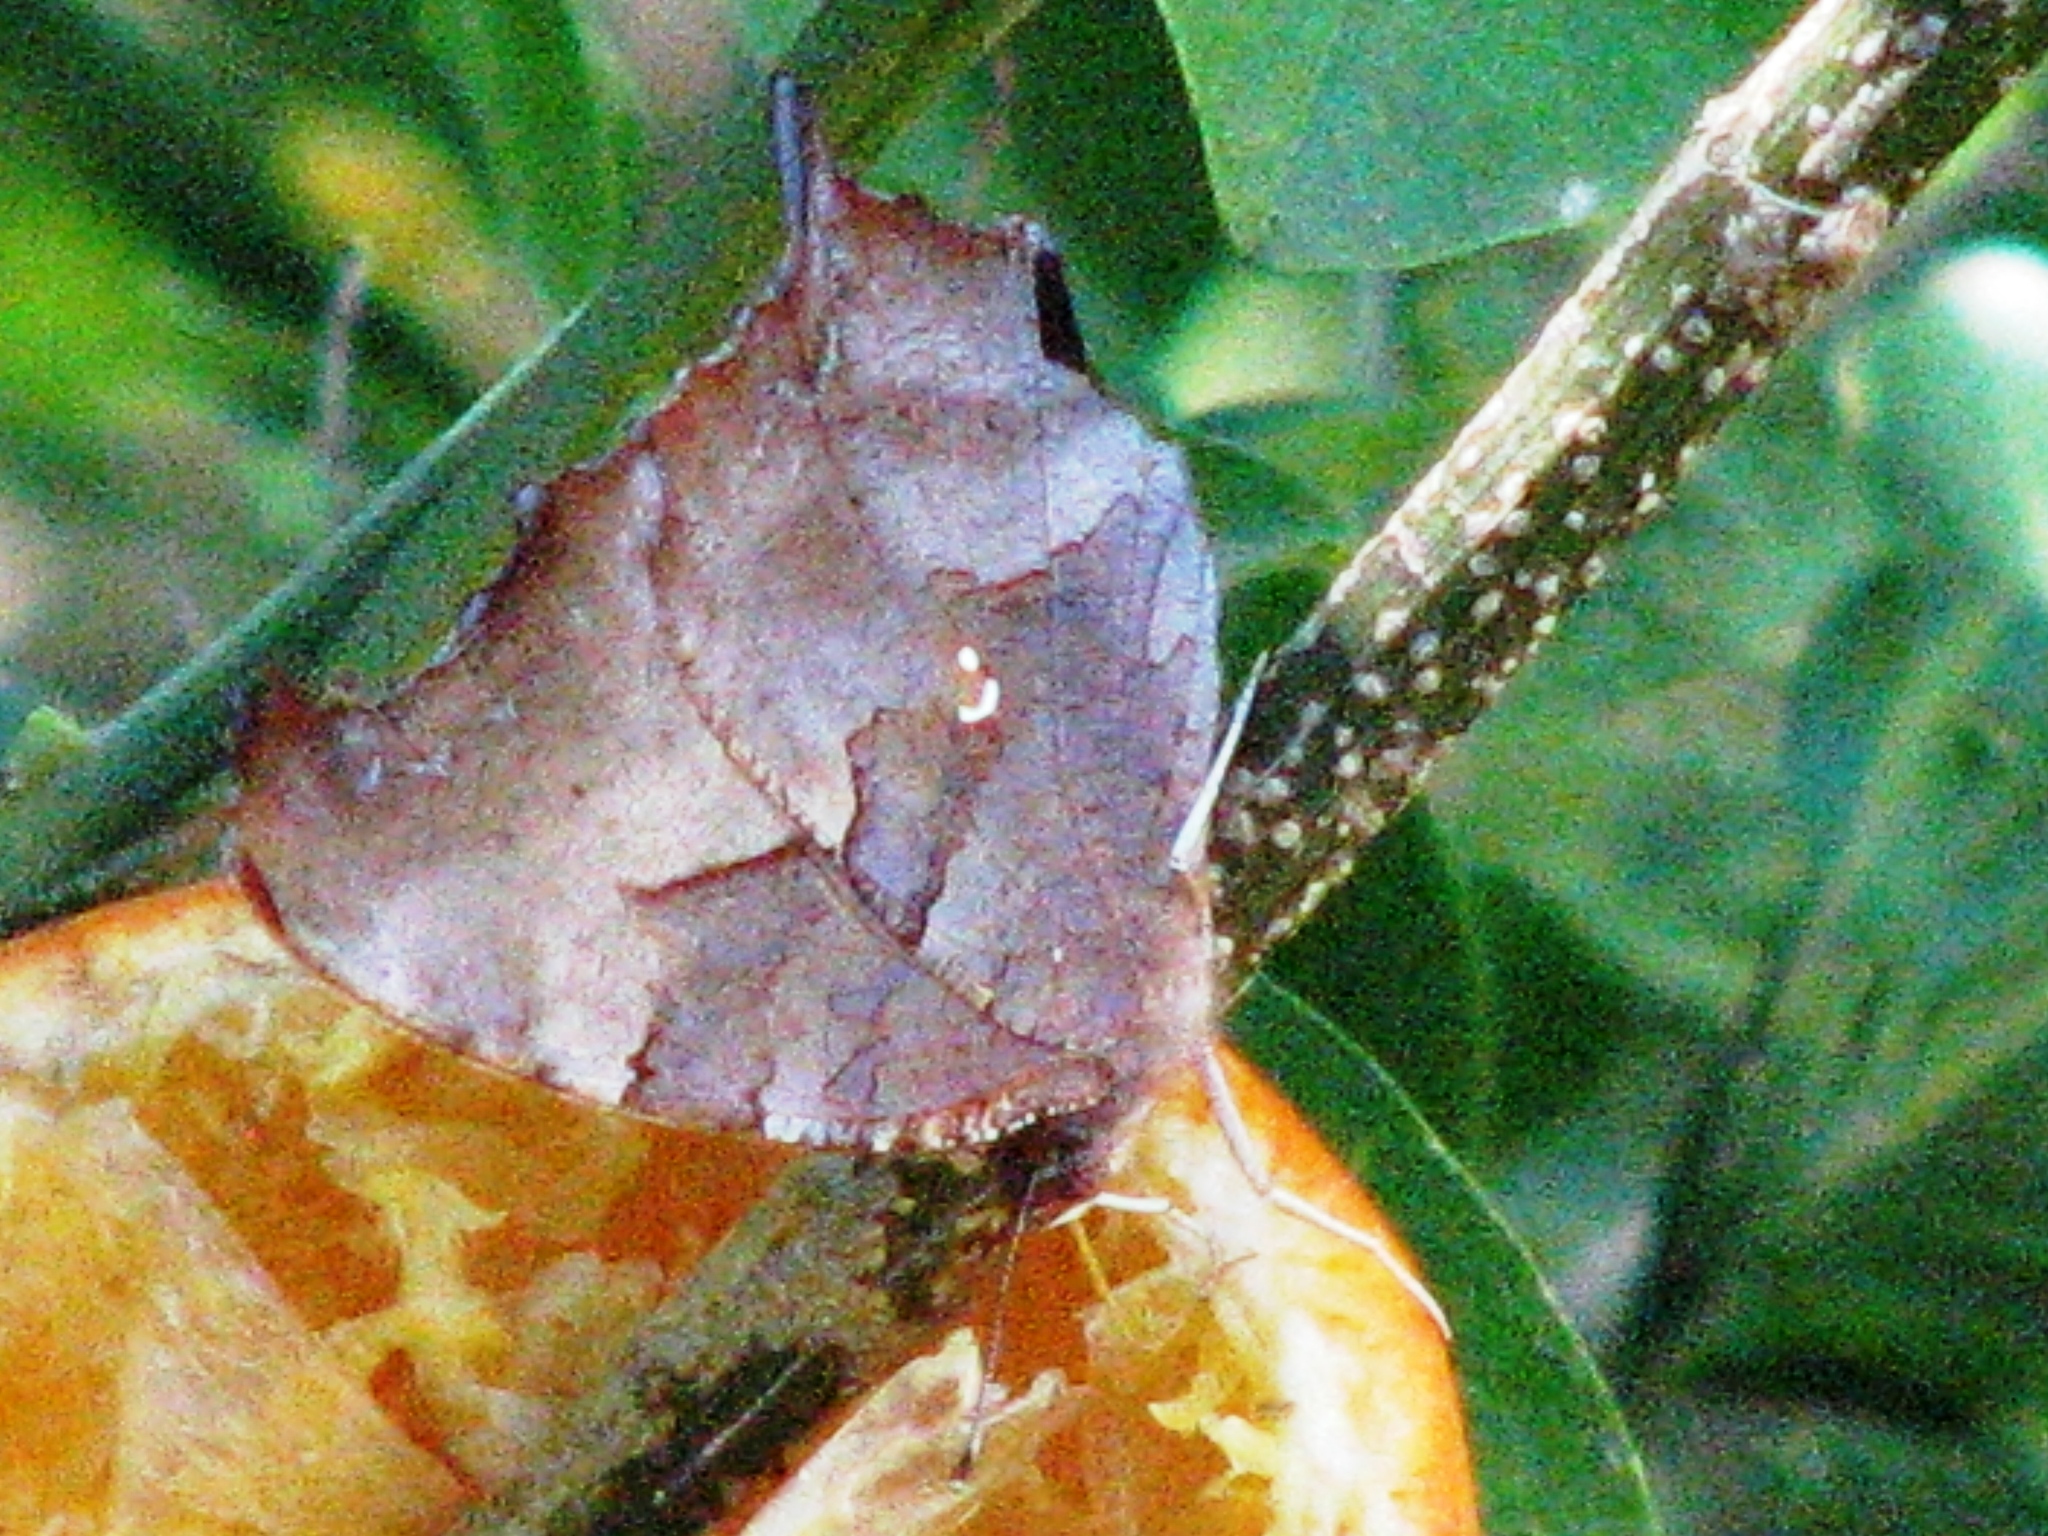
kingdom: Animalia
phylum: Arthropoda
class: Insecta
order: Lepidoptera
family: Nymphalidae
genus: Polygonia
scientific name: Polygonia interrogationis
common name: Question mark
